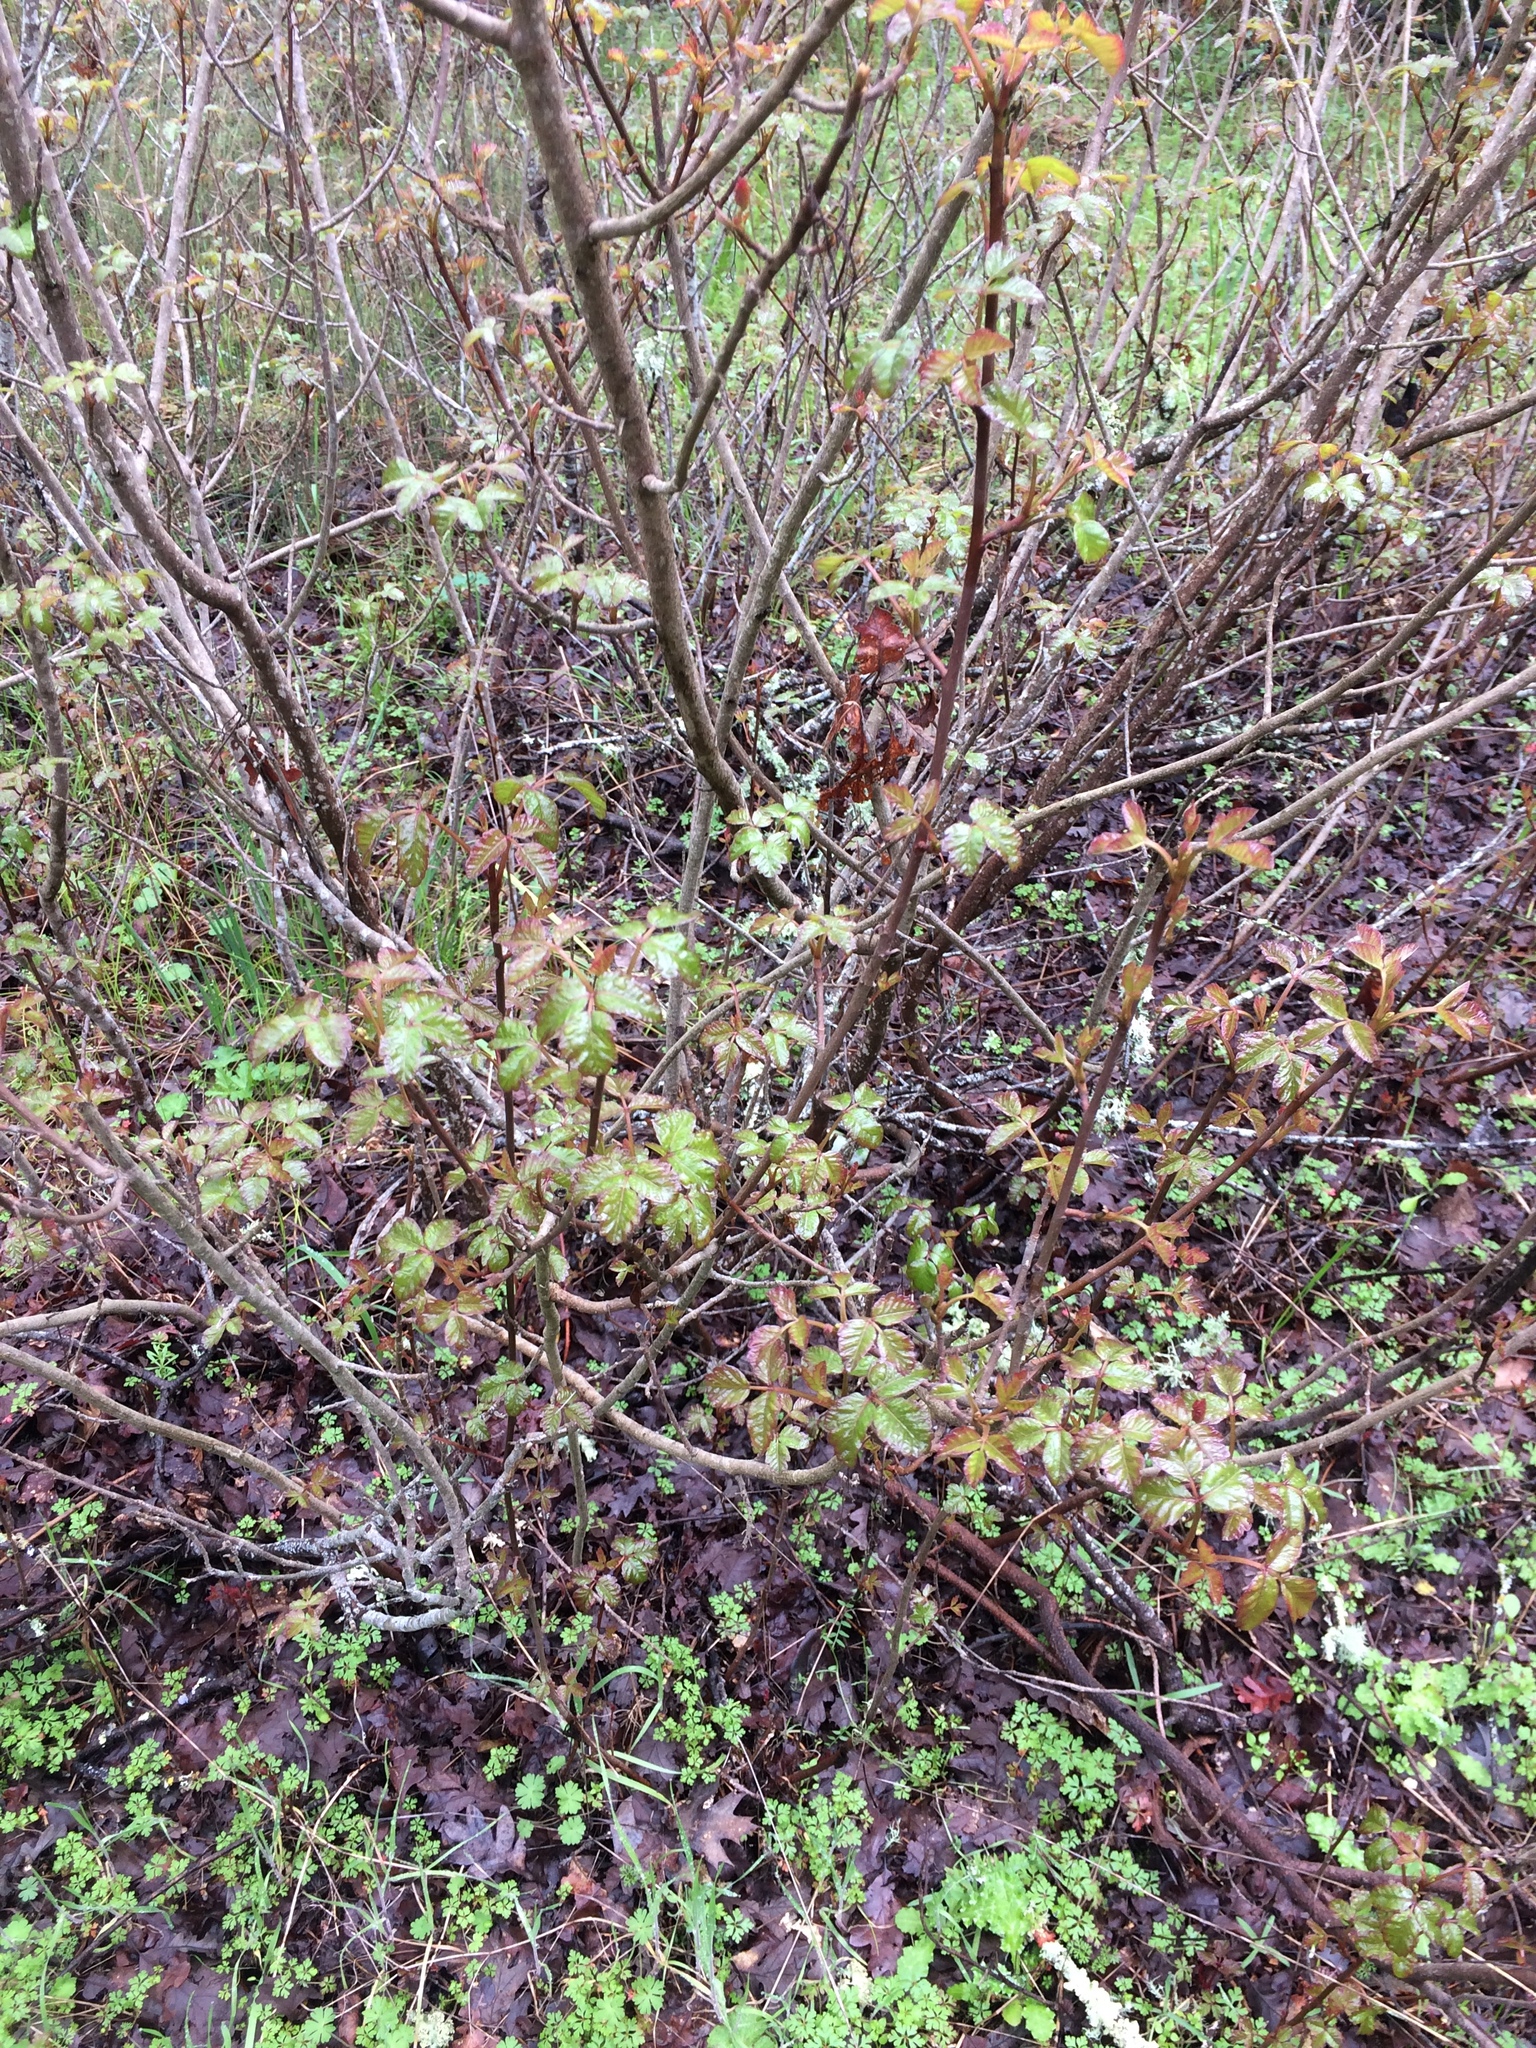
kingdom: Plantae
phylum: Tracheophyta
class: Magnoliopsida
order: Sapindales
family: Anacardiaceae
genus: Toxicodendron
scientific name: Toxicodendron diversilobum
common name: Pacific poison-oak
